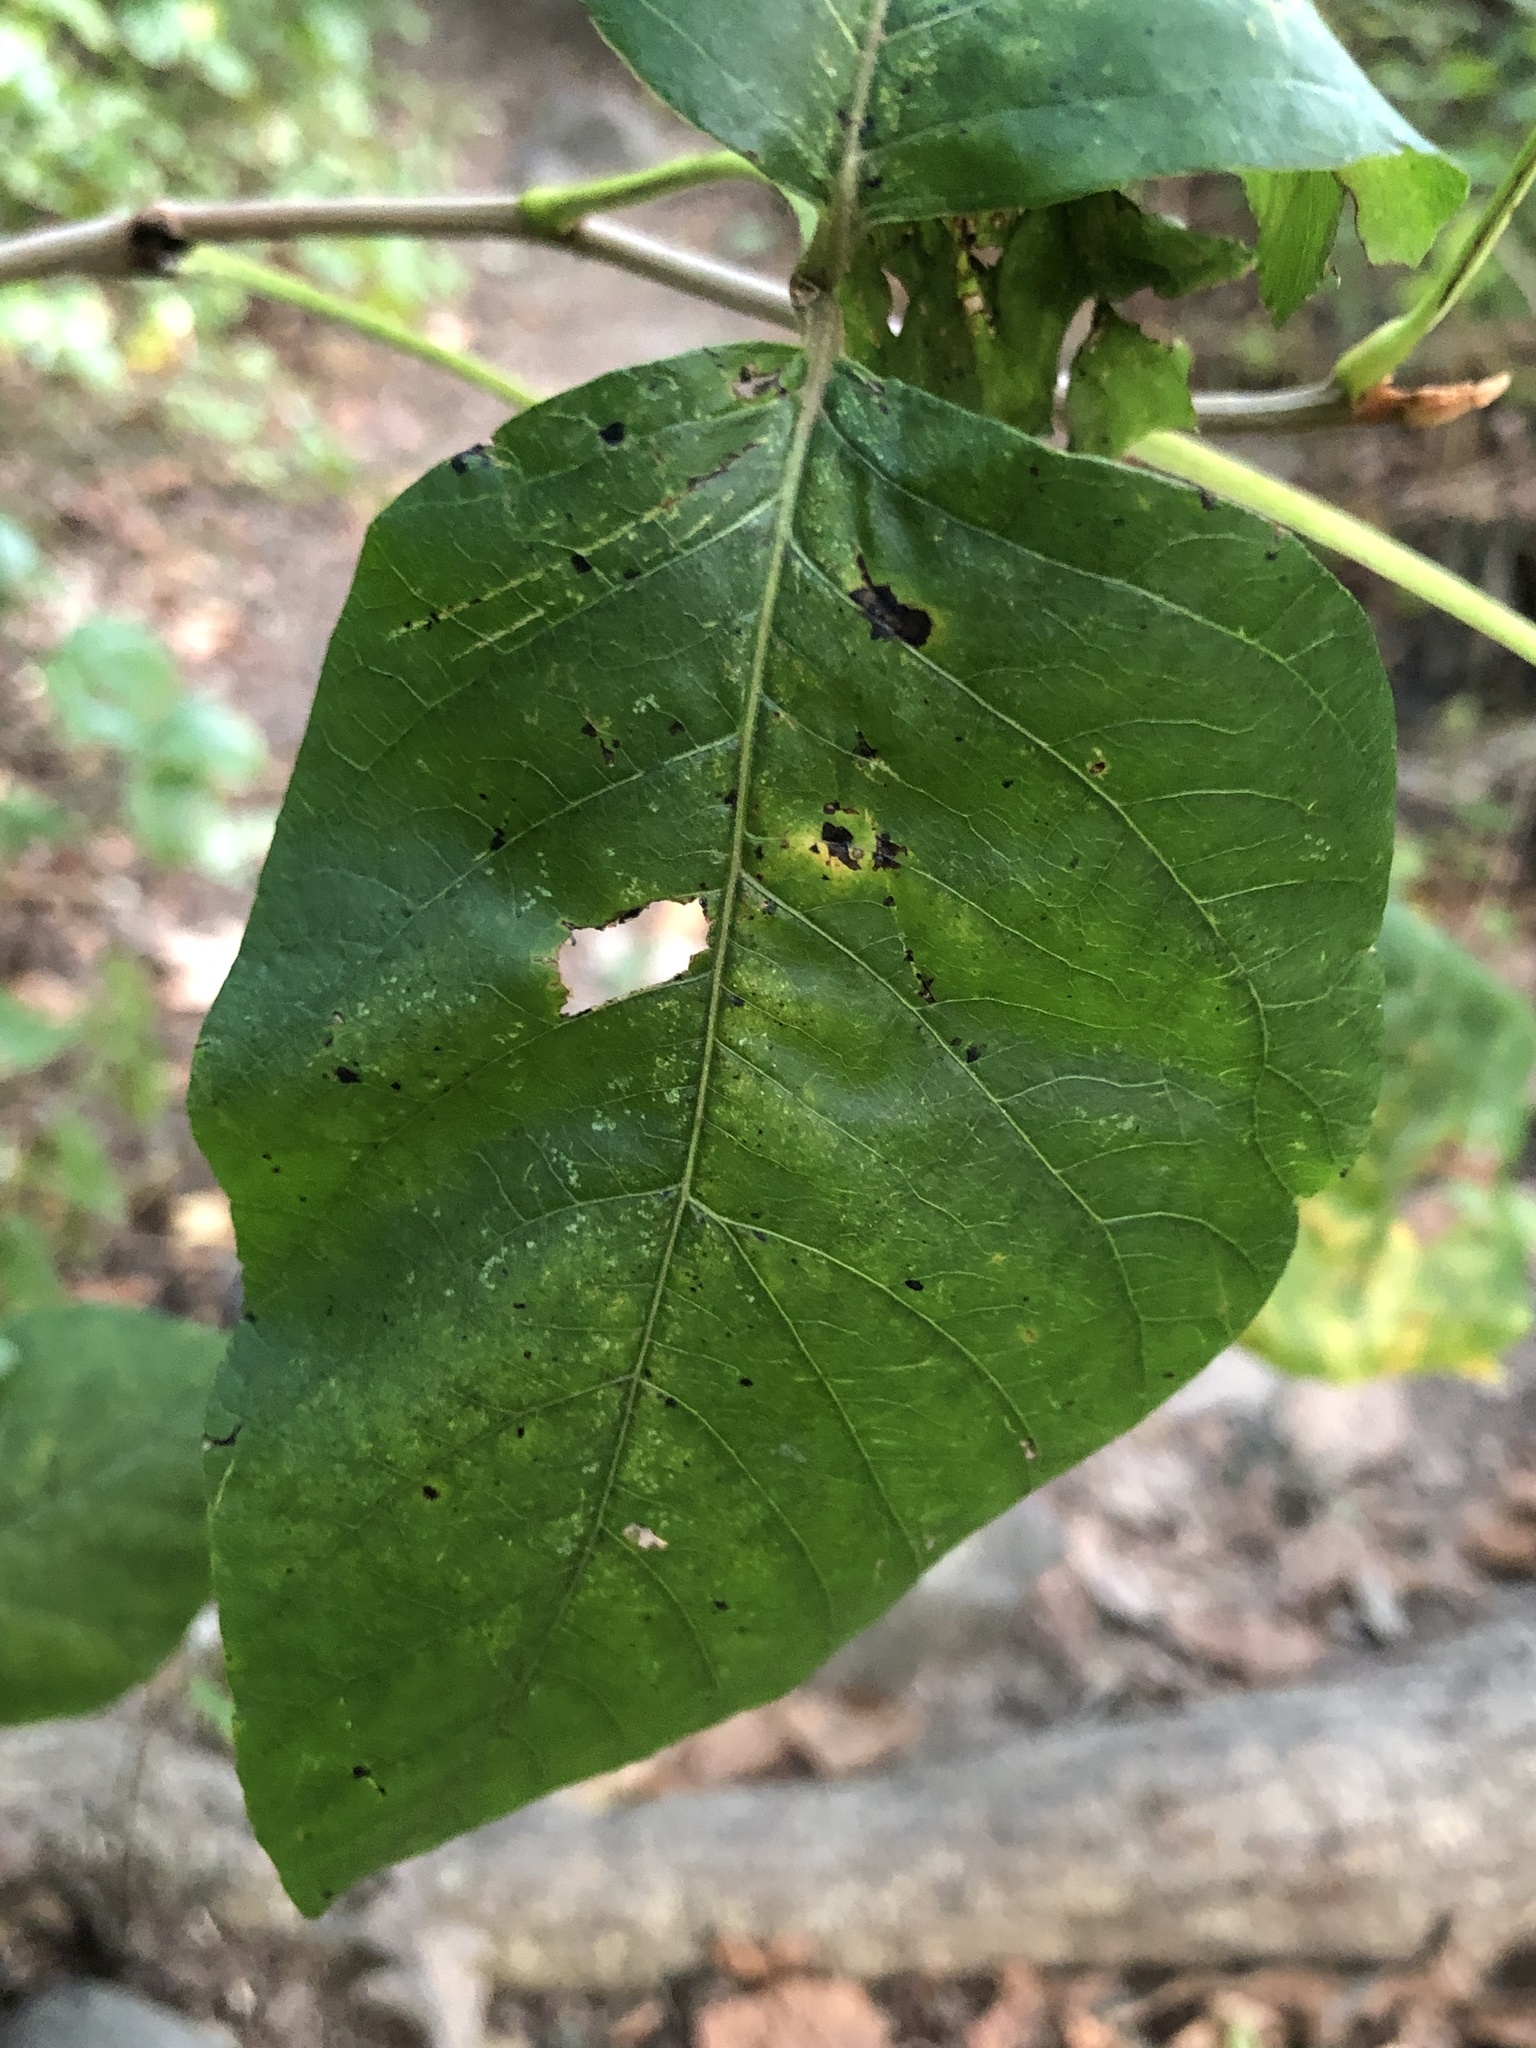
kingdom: Plantae
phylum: Tracheophyta
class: Magnoliopsida
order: Sapindales
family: Anacardiaceae
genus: Toxicodendron
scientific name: Toxicodendron radicans
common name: Poison ivy
